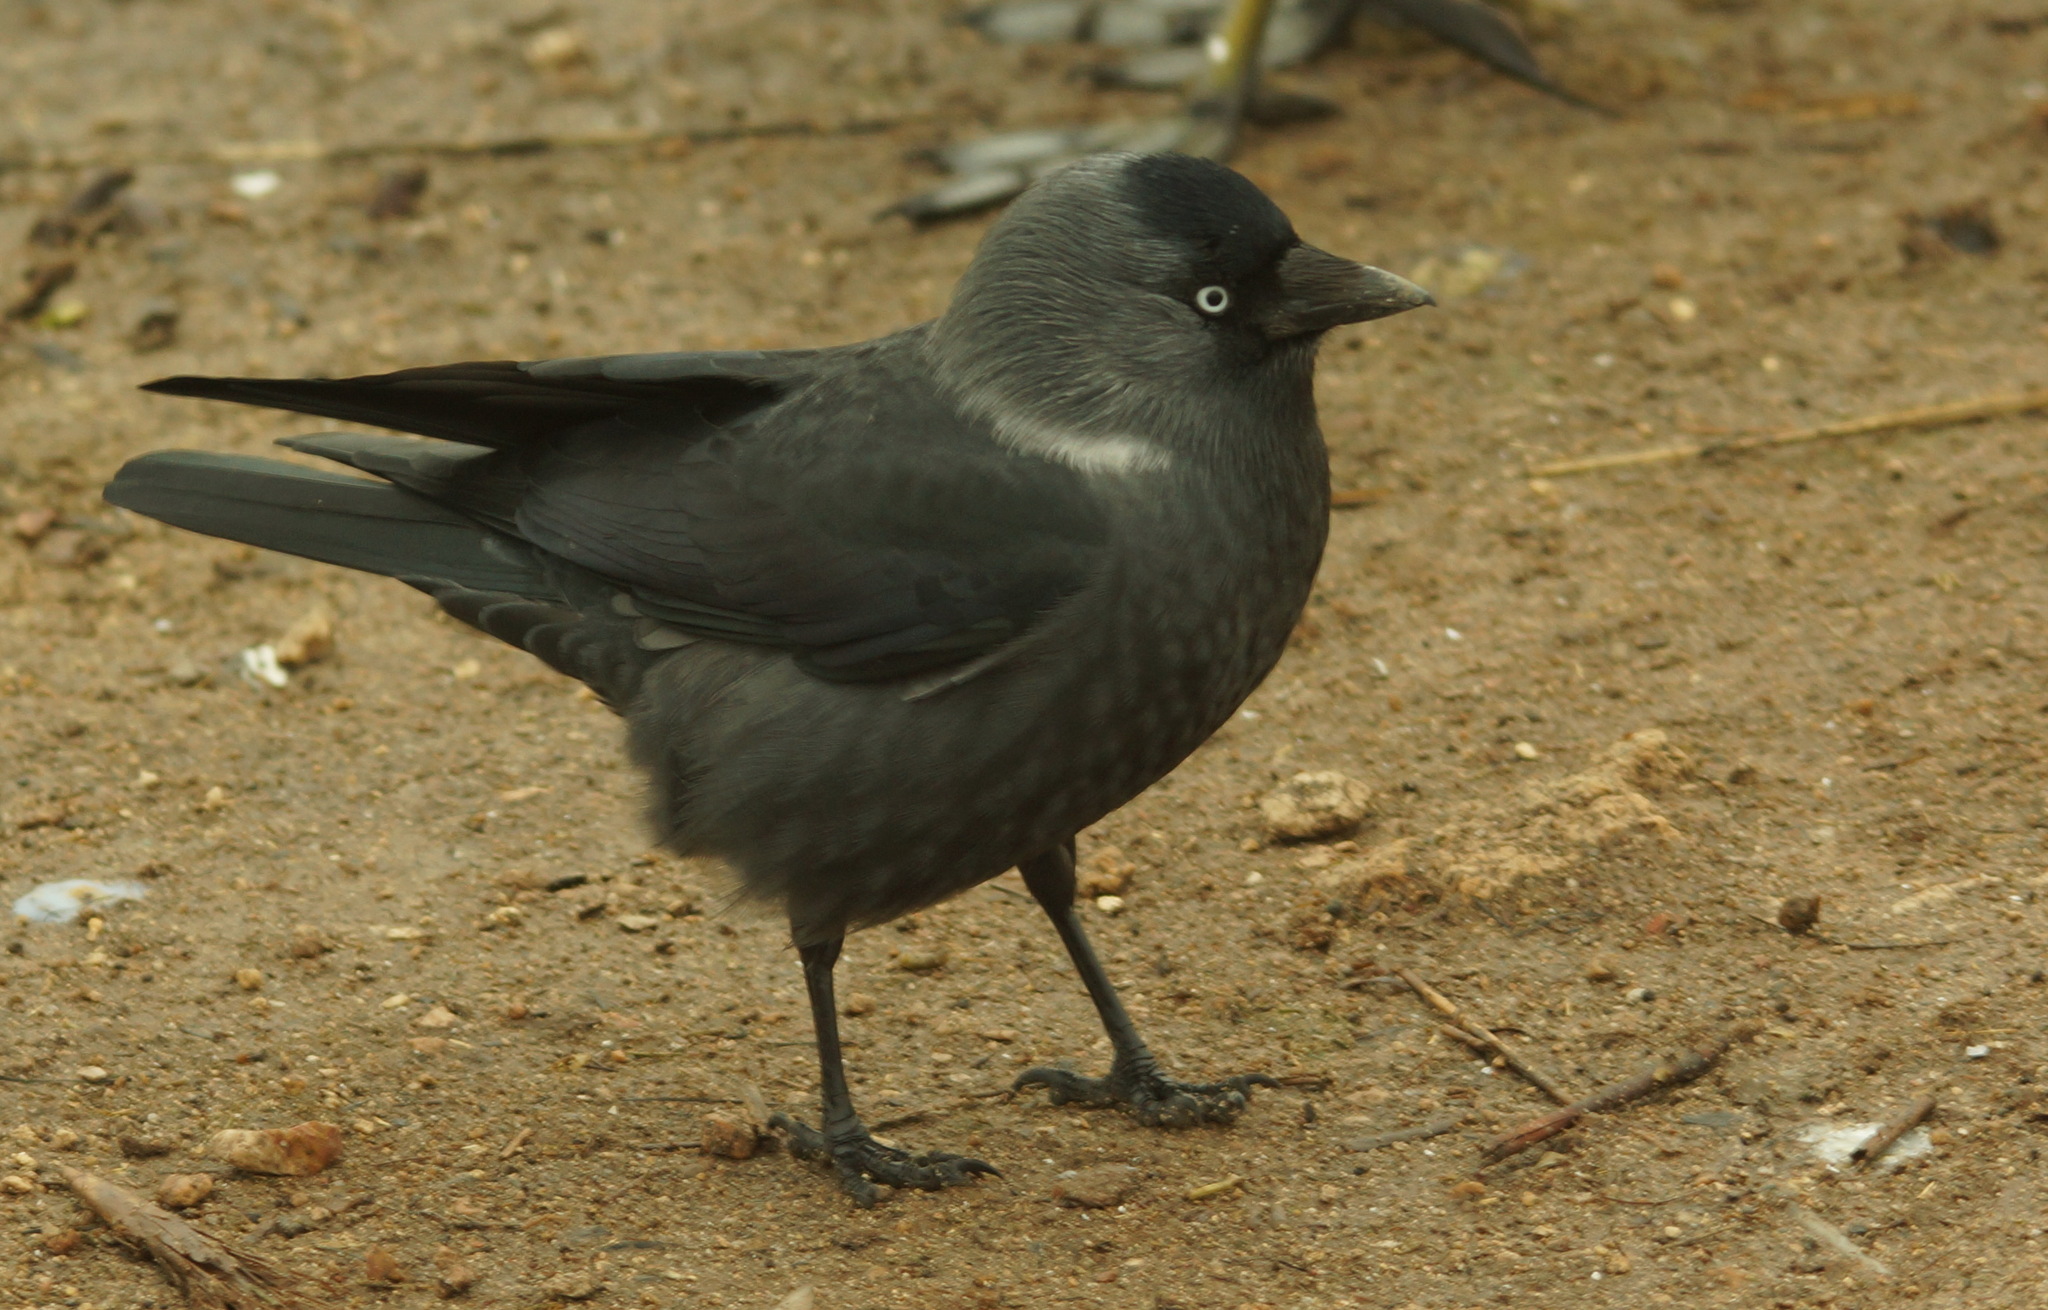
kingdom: Animalia
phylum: Chordata
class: Aves
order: Passeriformes
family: Corvidae
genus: Coloeus
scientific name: Coloeus monedula
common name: Western jackdaw
